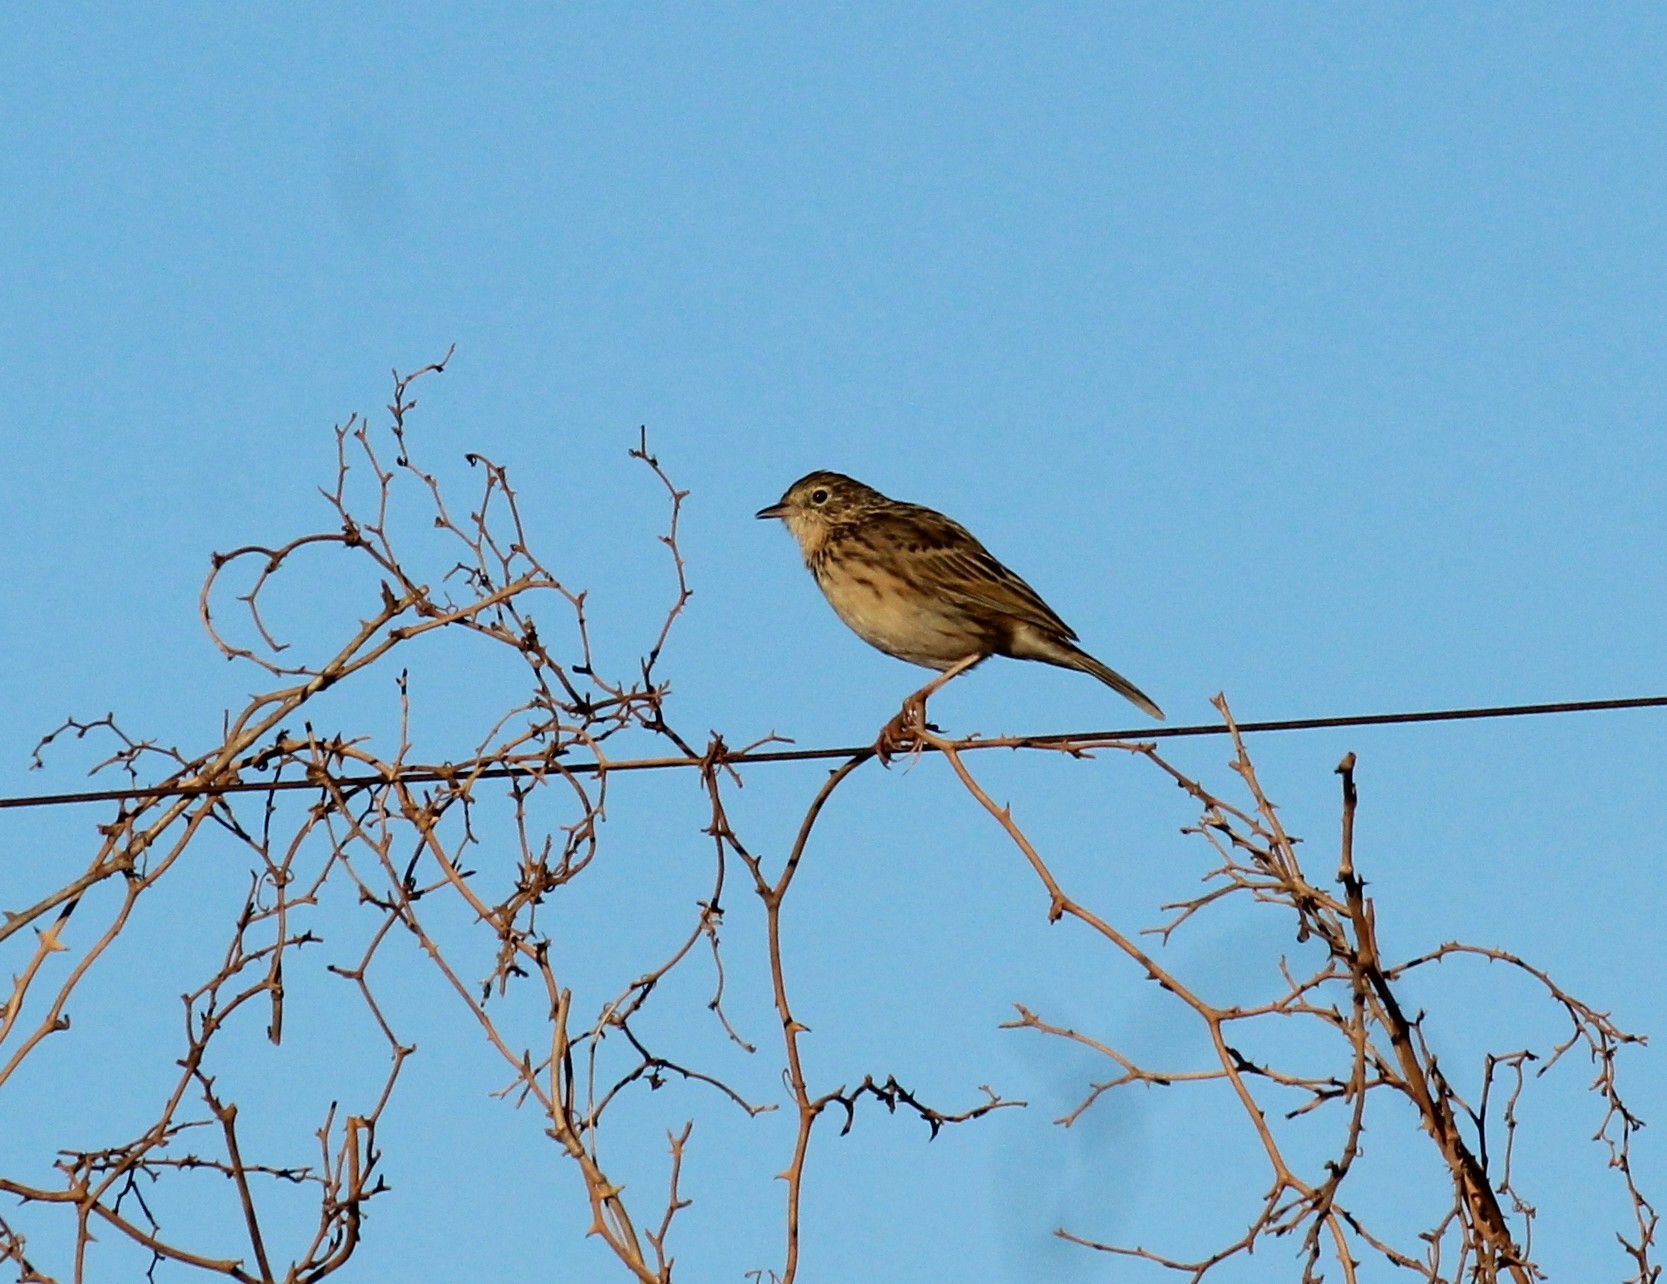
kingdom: Animalia
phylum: Chordata
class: Aves
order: Passeriformes
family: Motacillidae
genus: Anthus
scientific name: Anthus hellmayri
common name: Hellmayr's pipit
